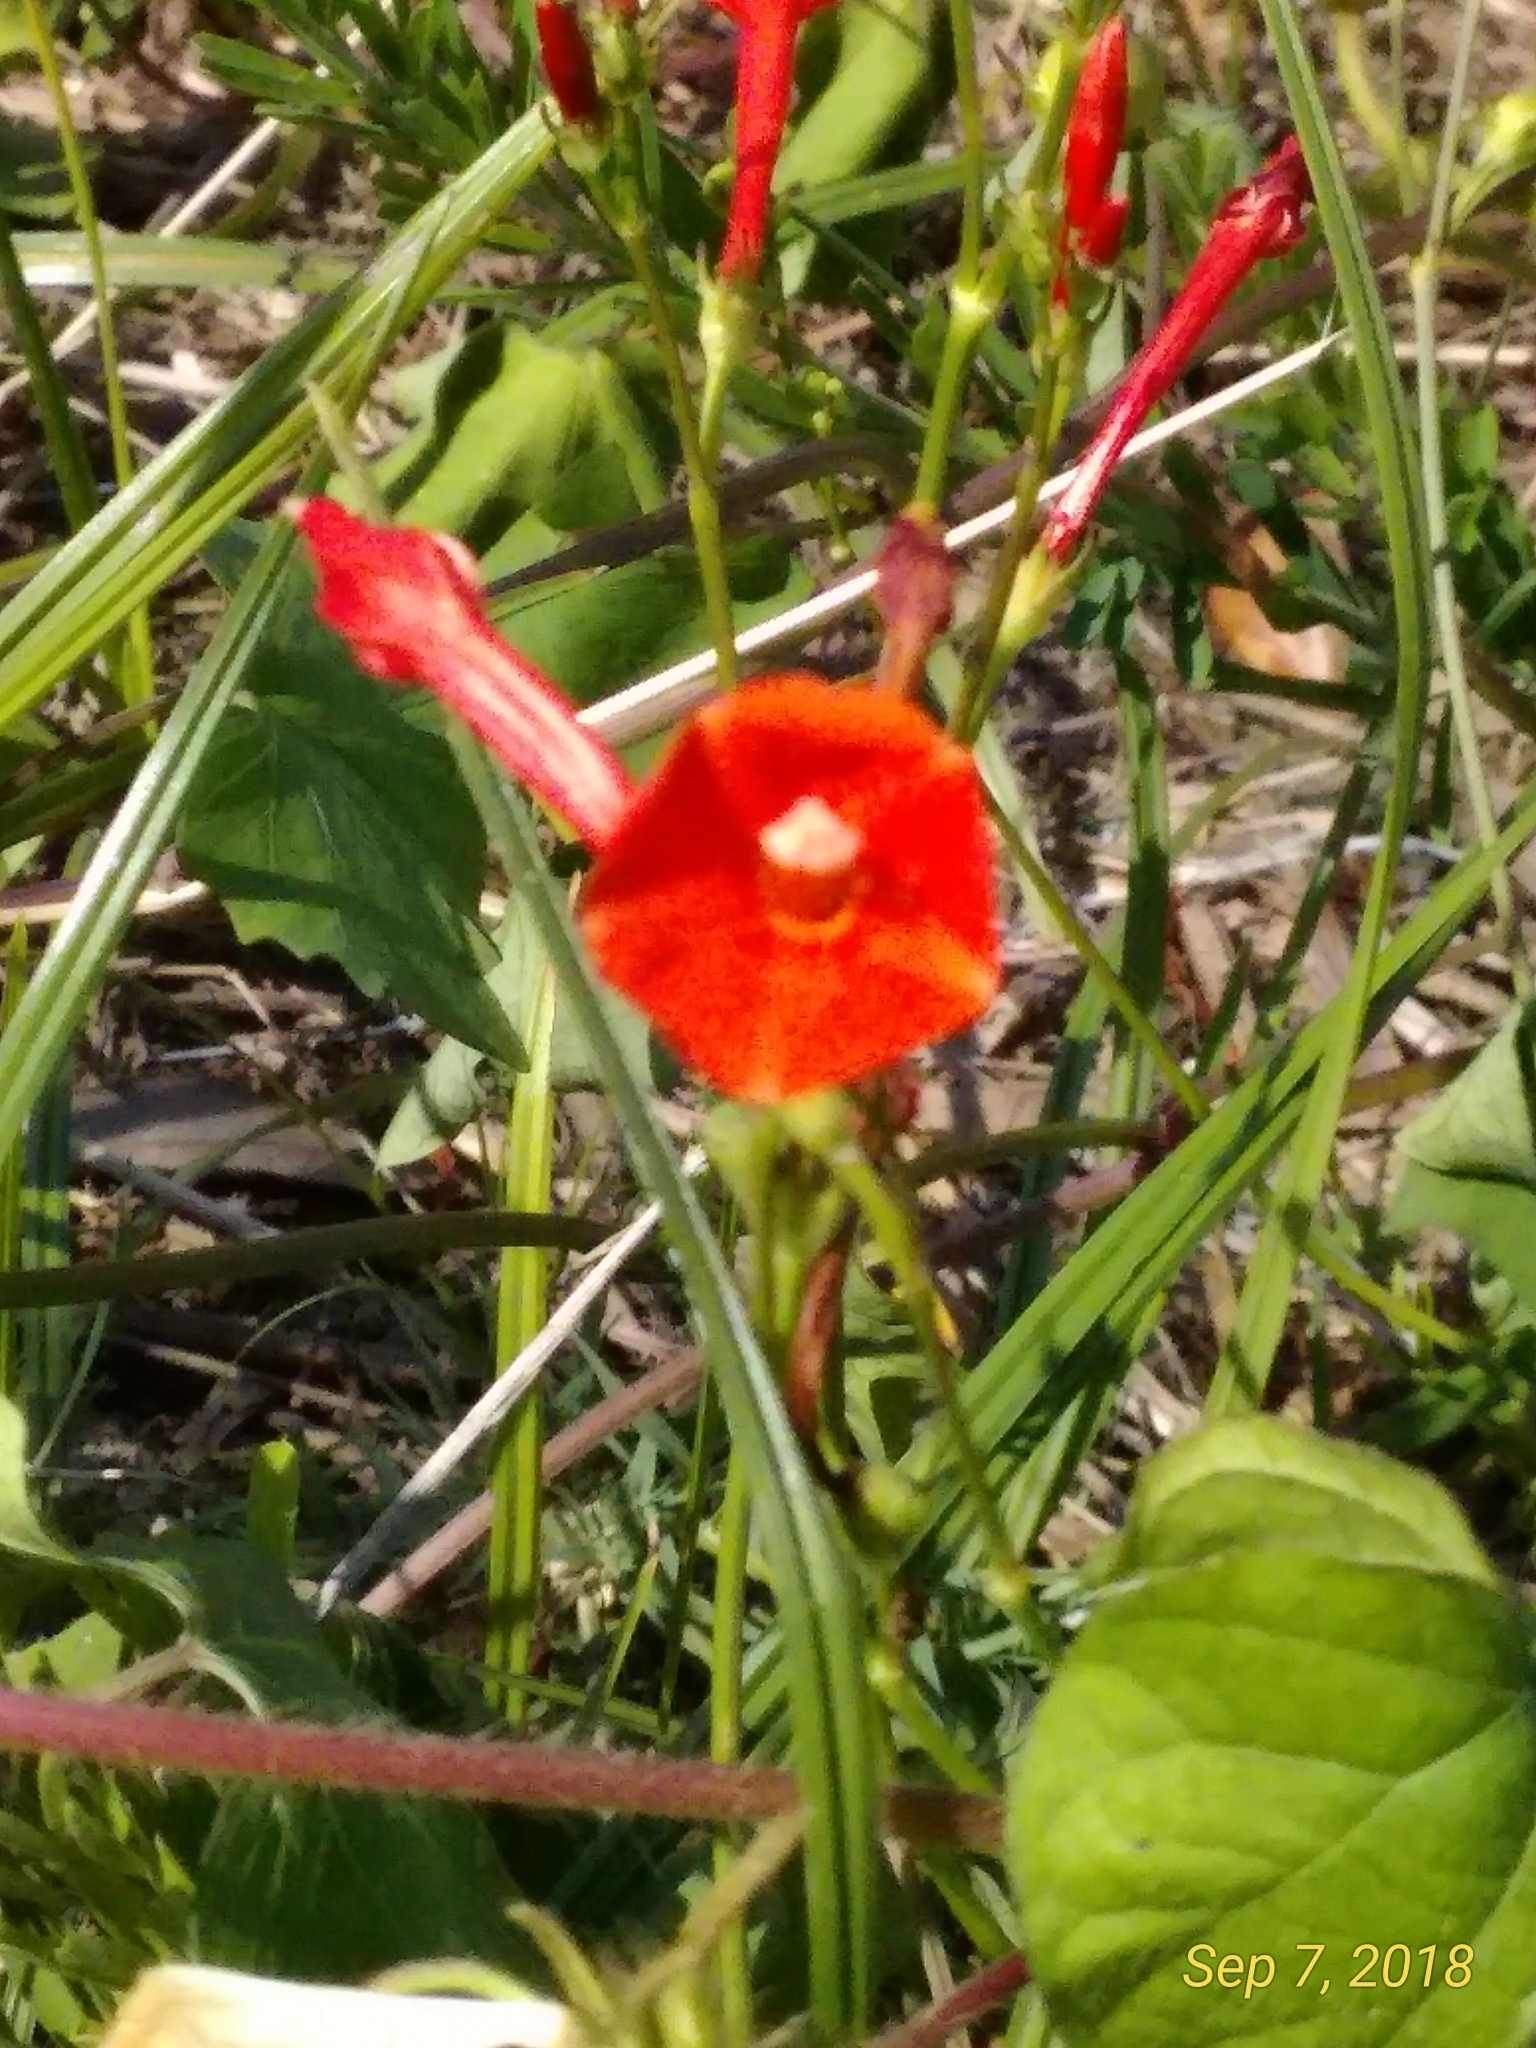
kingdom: Plantae
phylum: Tracheophyta
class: Magnoliopsida
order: Solanales
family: Convolvulaceae
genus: Ipomoea
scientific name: Ipomoea hederifolia
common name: Ivy-leaf morning-glory
